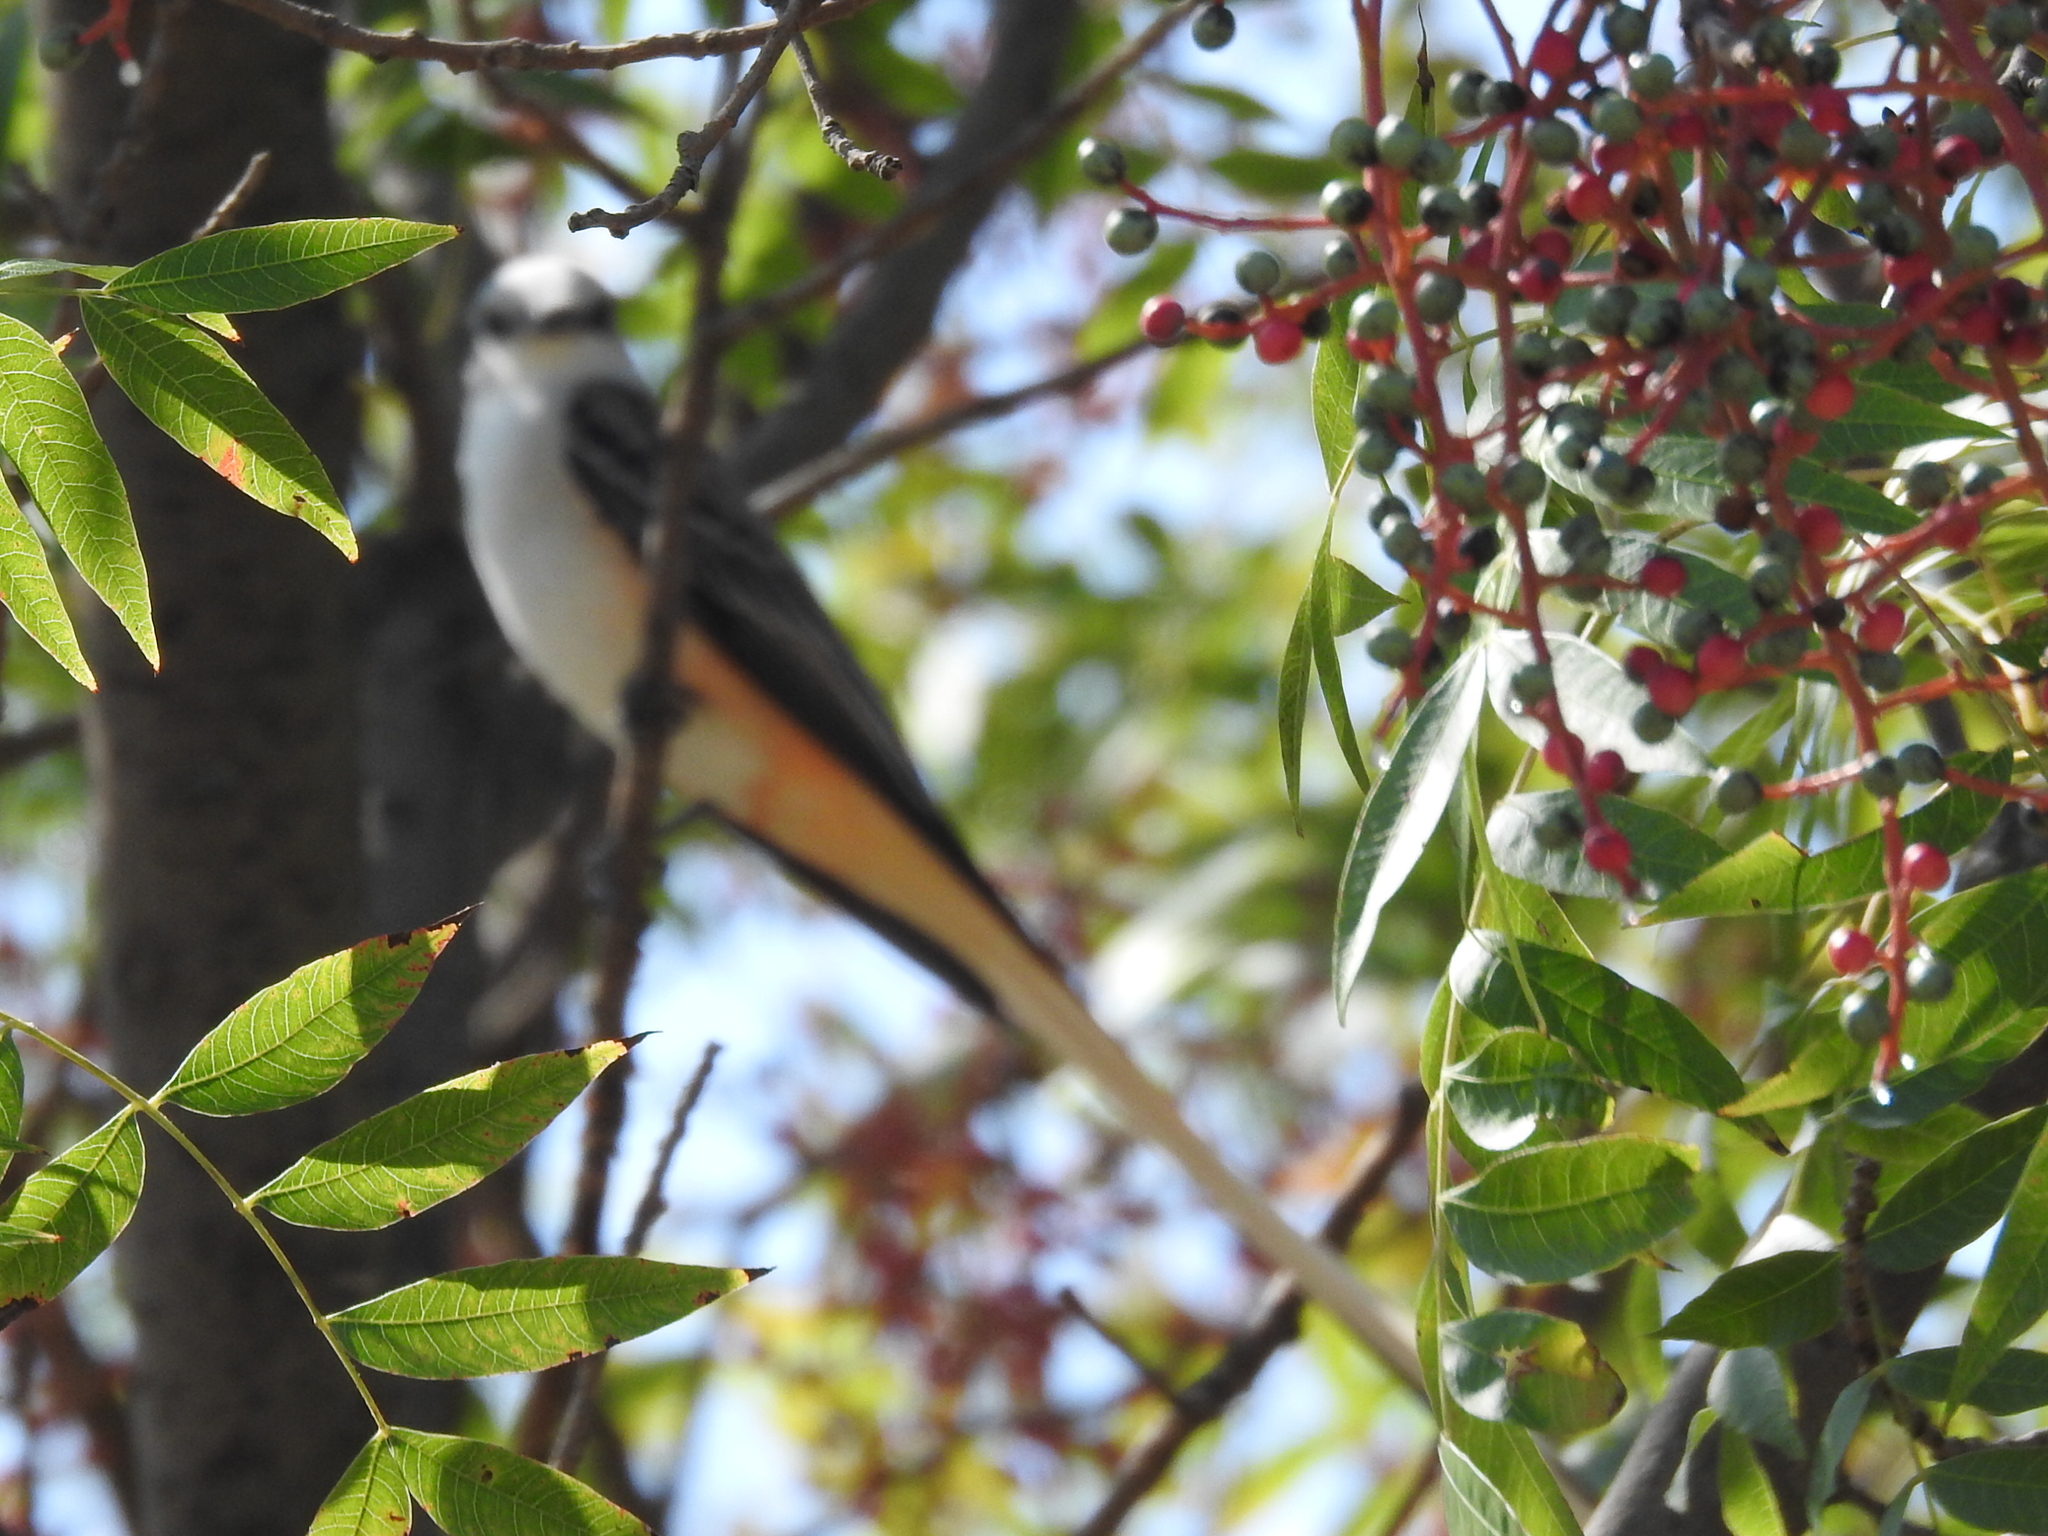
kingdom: Animalia
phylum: Chordata
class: Aves
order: Passeriformes
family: Tyrannidae
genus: Tyrannus
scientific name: Tyrannus forficatus
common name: Scissor-tailed flycatcher
